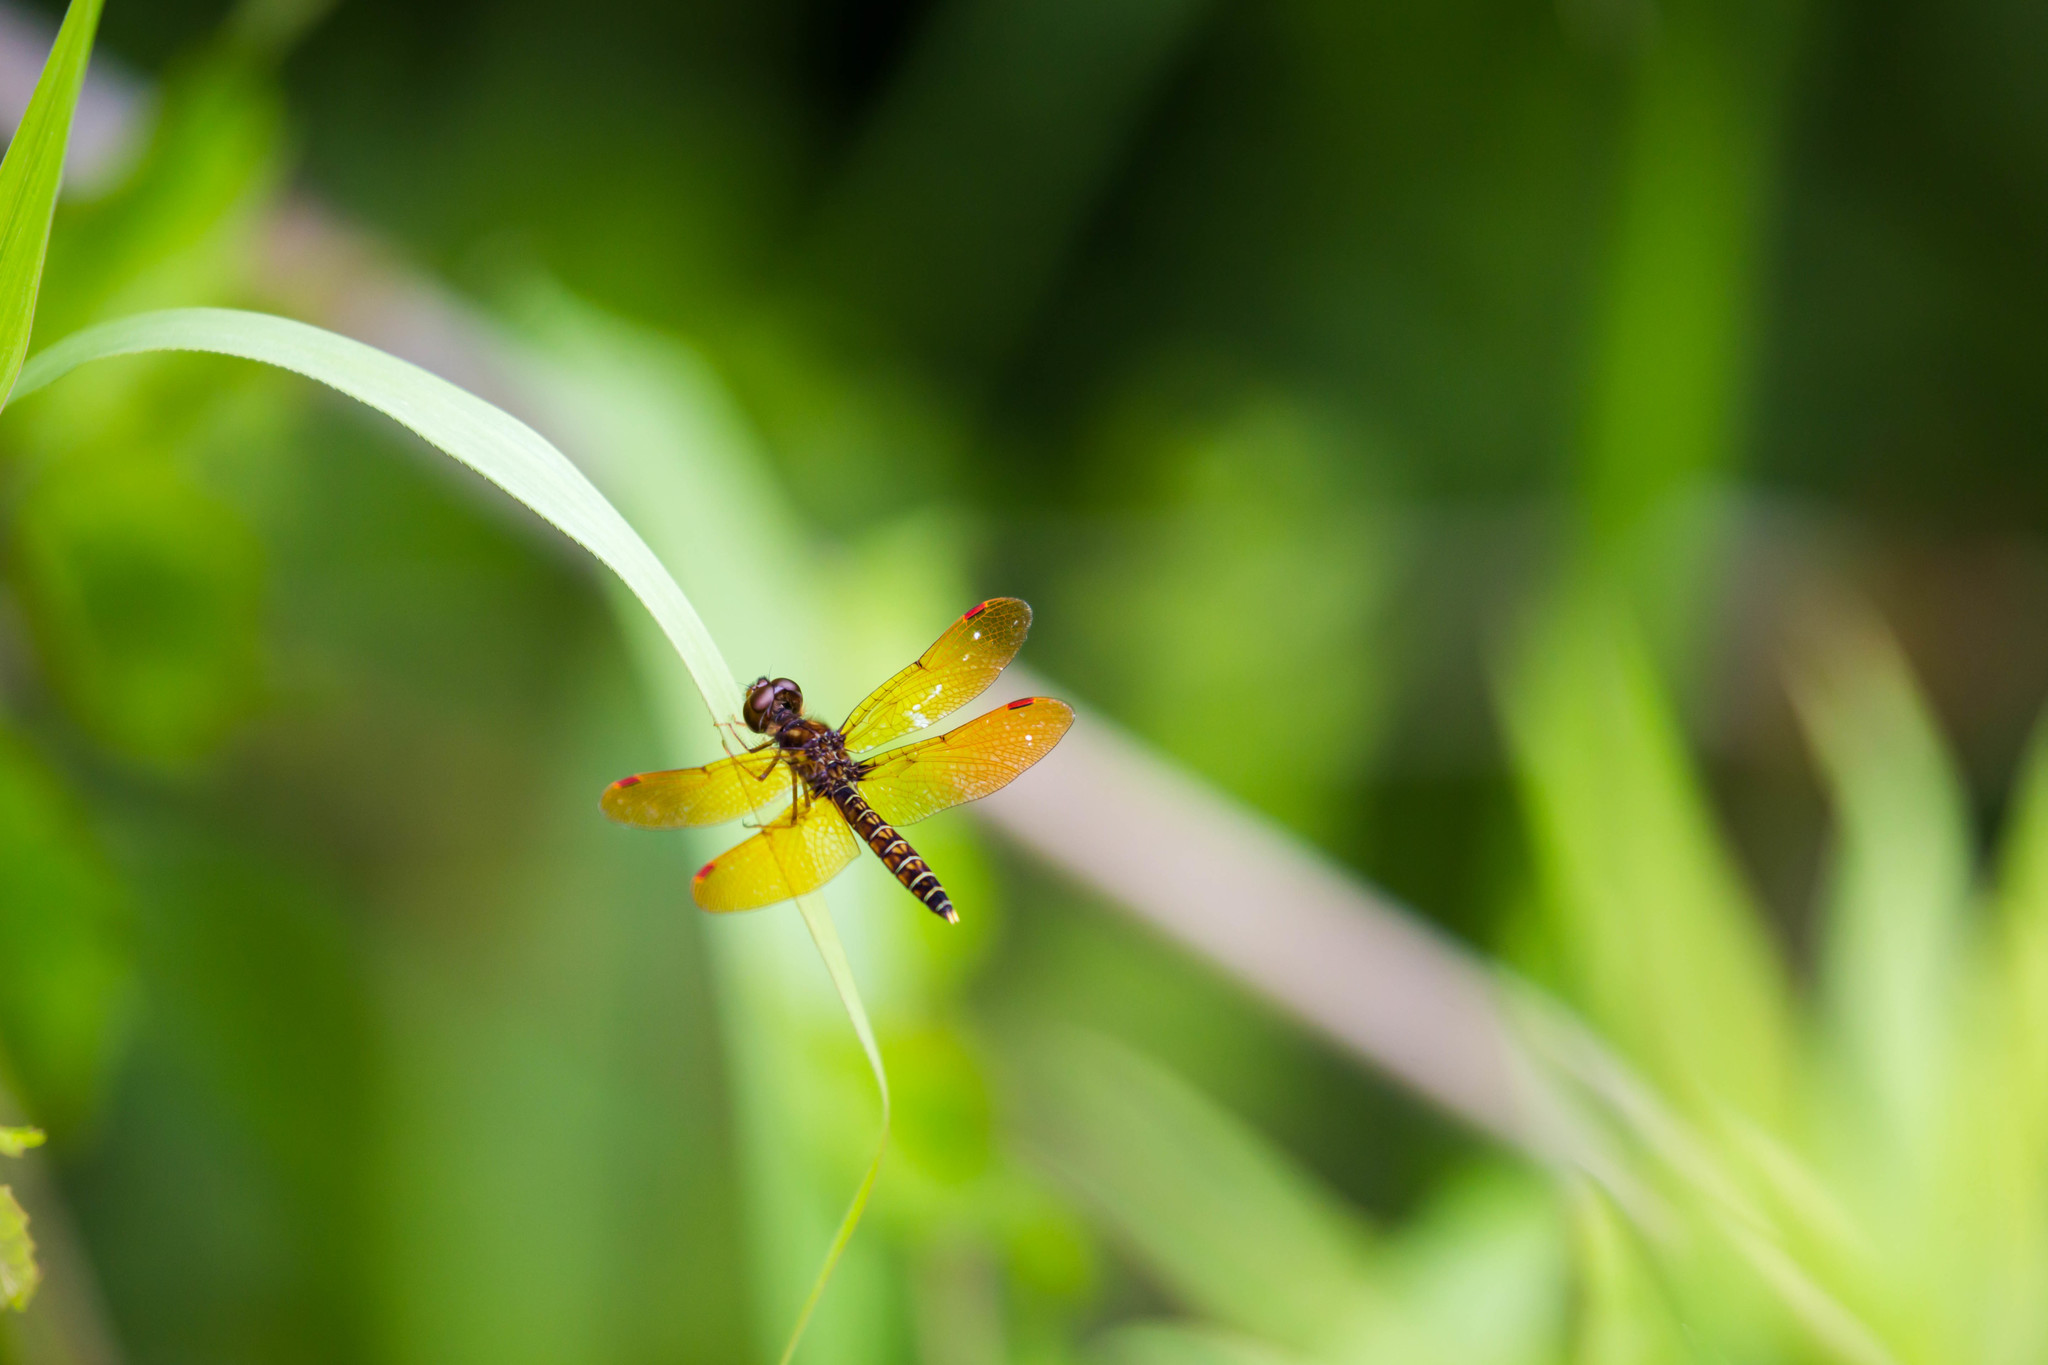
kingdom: Animalia
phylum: Arthropoda
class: Insecta
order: Odonata
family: Libellulidae
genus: Perithemis
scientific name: Perithemis tenera
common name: Eastern amberwing
